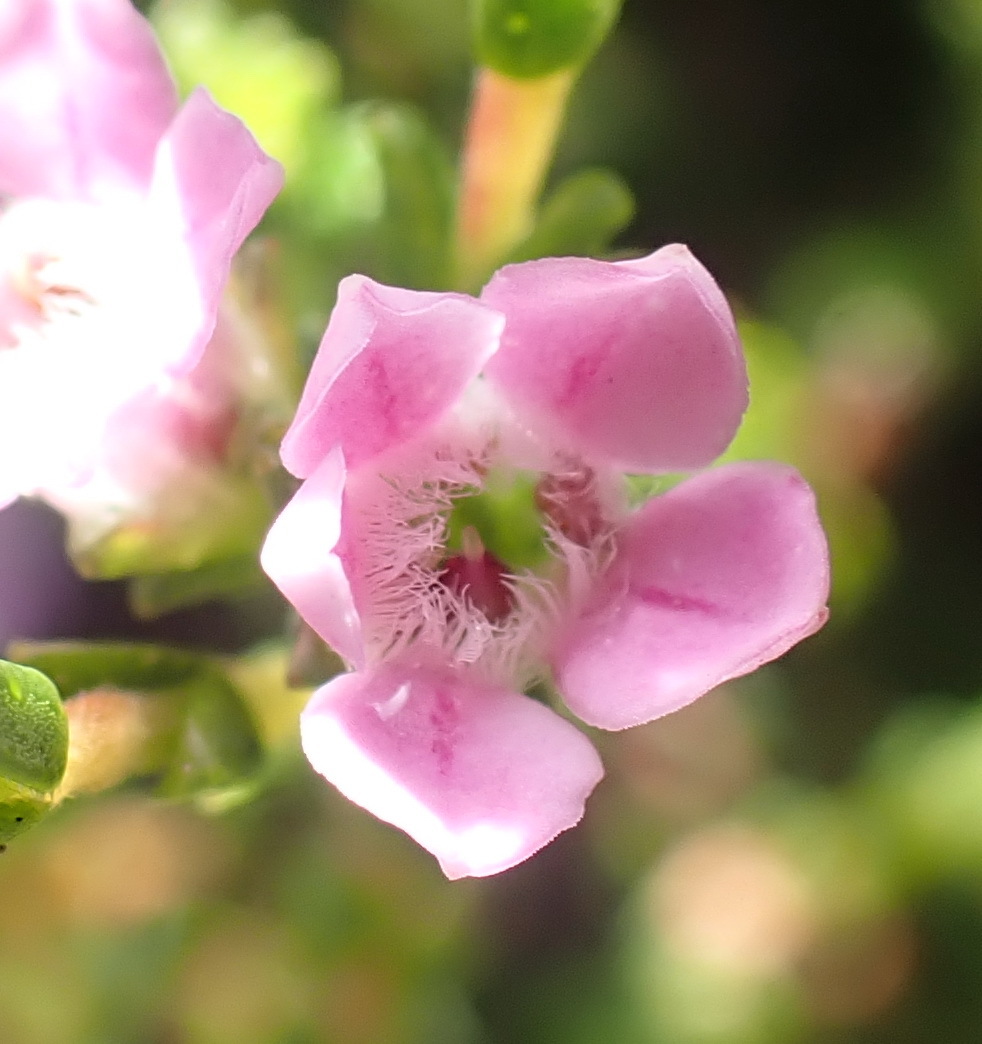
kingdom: Plantae
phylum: Tracheophyta
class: Magnoliopsida
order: Sapindales
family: Rutaceae
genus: Euchaetis
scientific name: Euchaetis albertiniana
